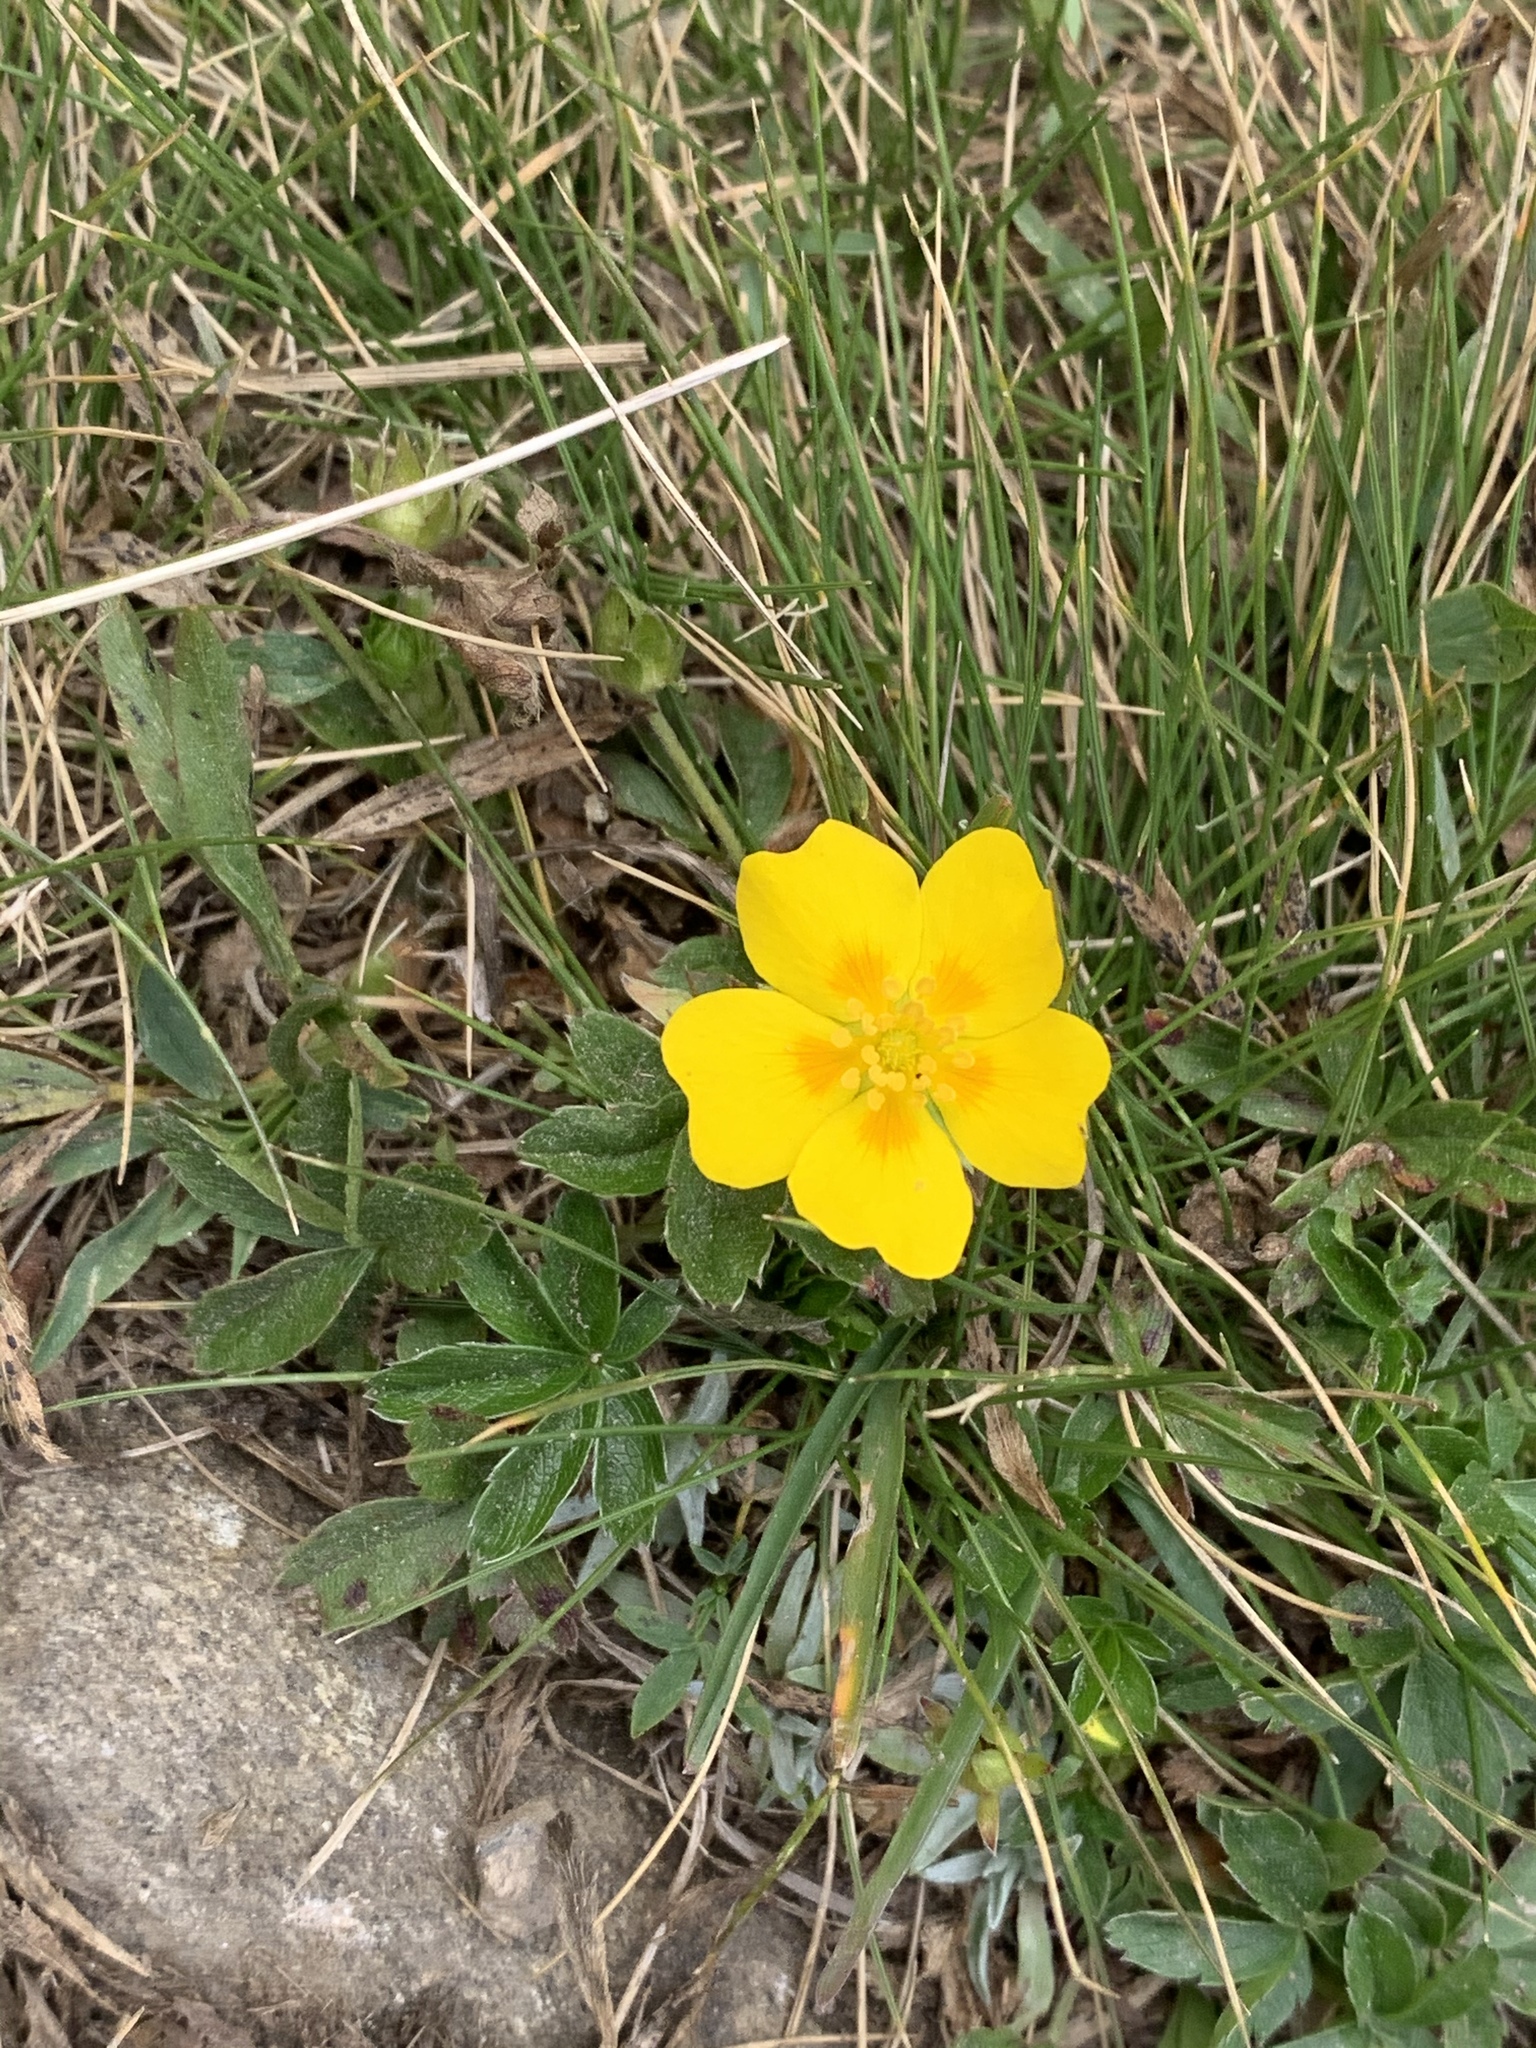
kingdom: Plantae
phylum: Tracheophyta
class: Magnoliopsida
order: Rosales
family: Rosaceae
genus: Potentilla
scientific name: Potentilla aurea
